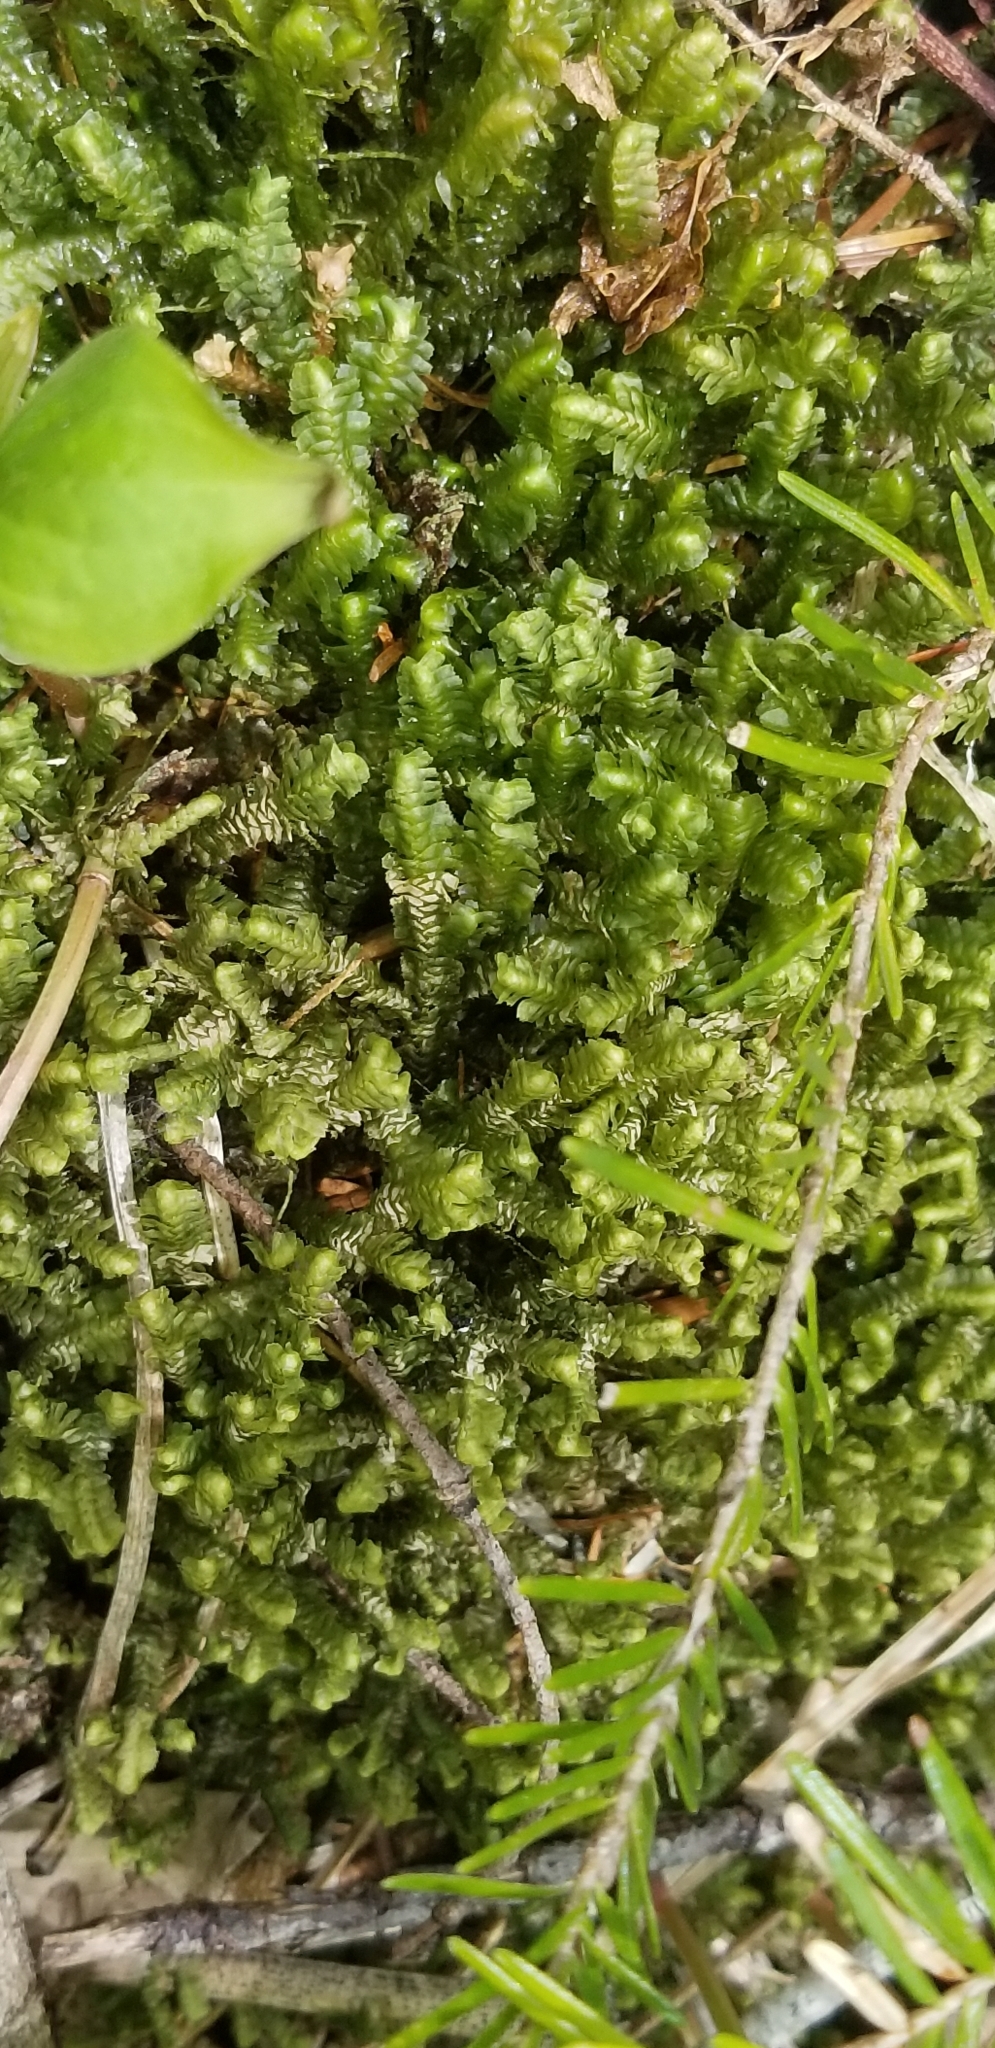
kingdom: Plantae
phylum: Marchantiophyta
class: Jungermanniopsida
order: Jungermanniales
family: Lepidoziaceae
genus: Bazzania
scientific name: Bazzania trilobata
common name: Three-lobed whipwort
